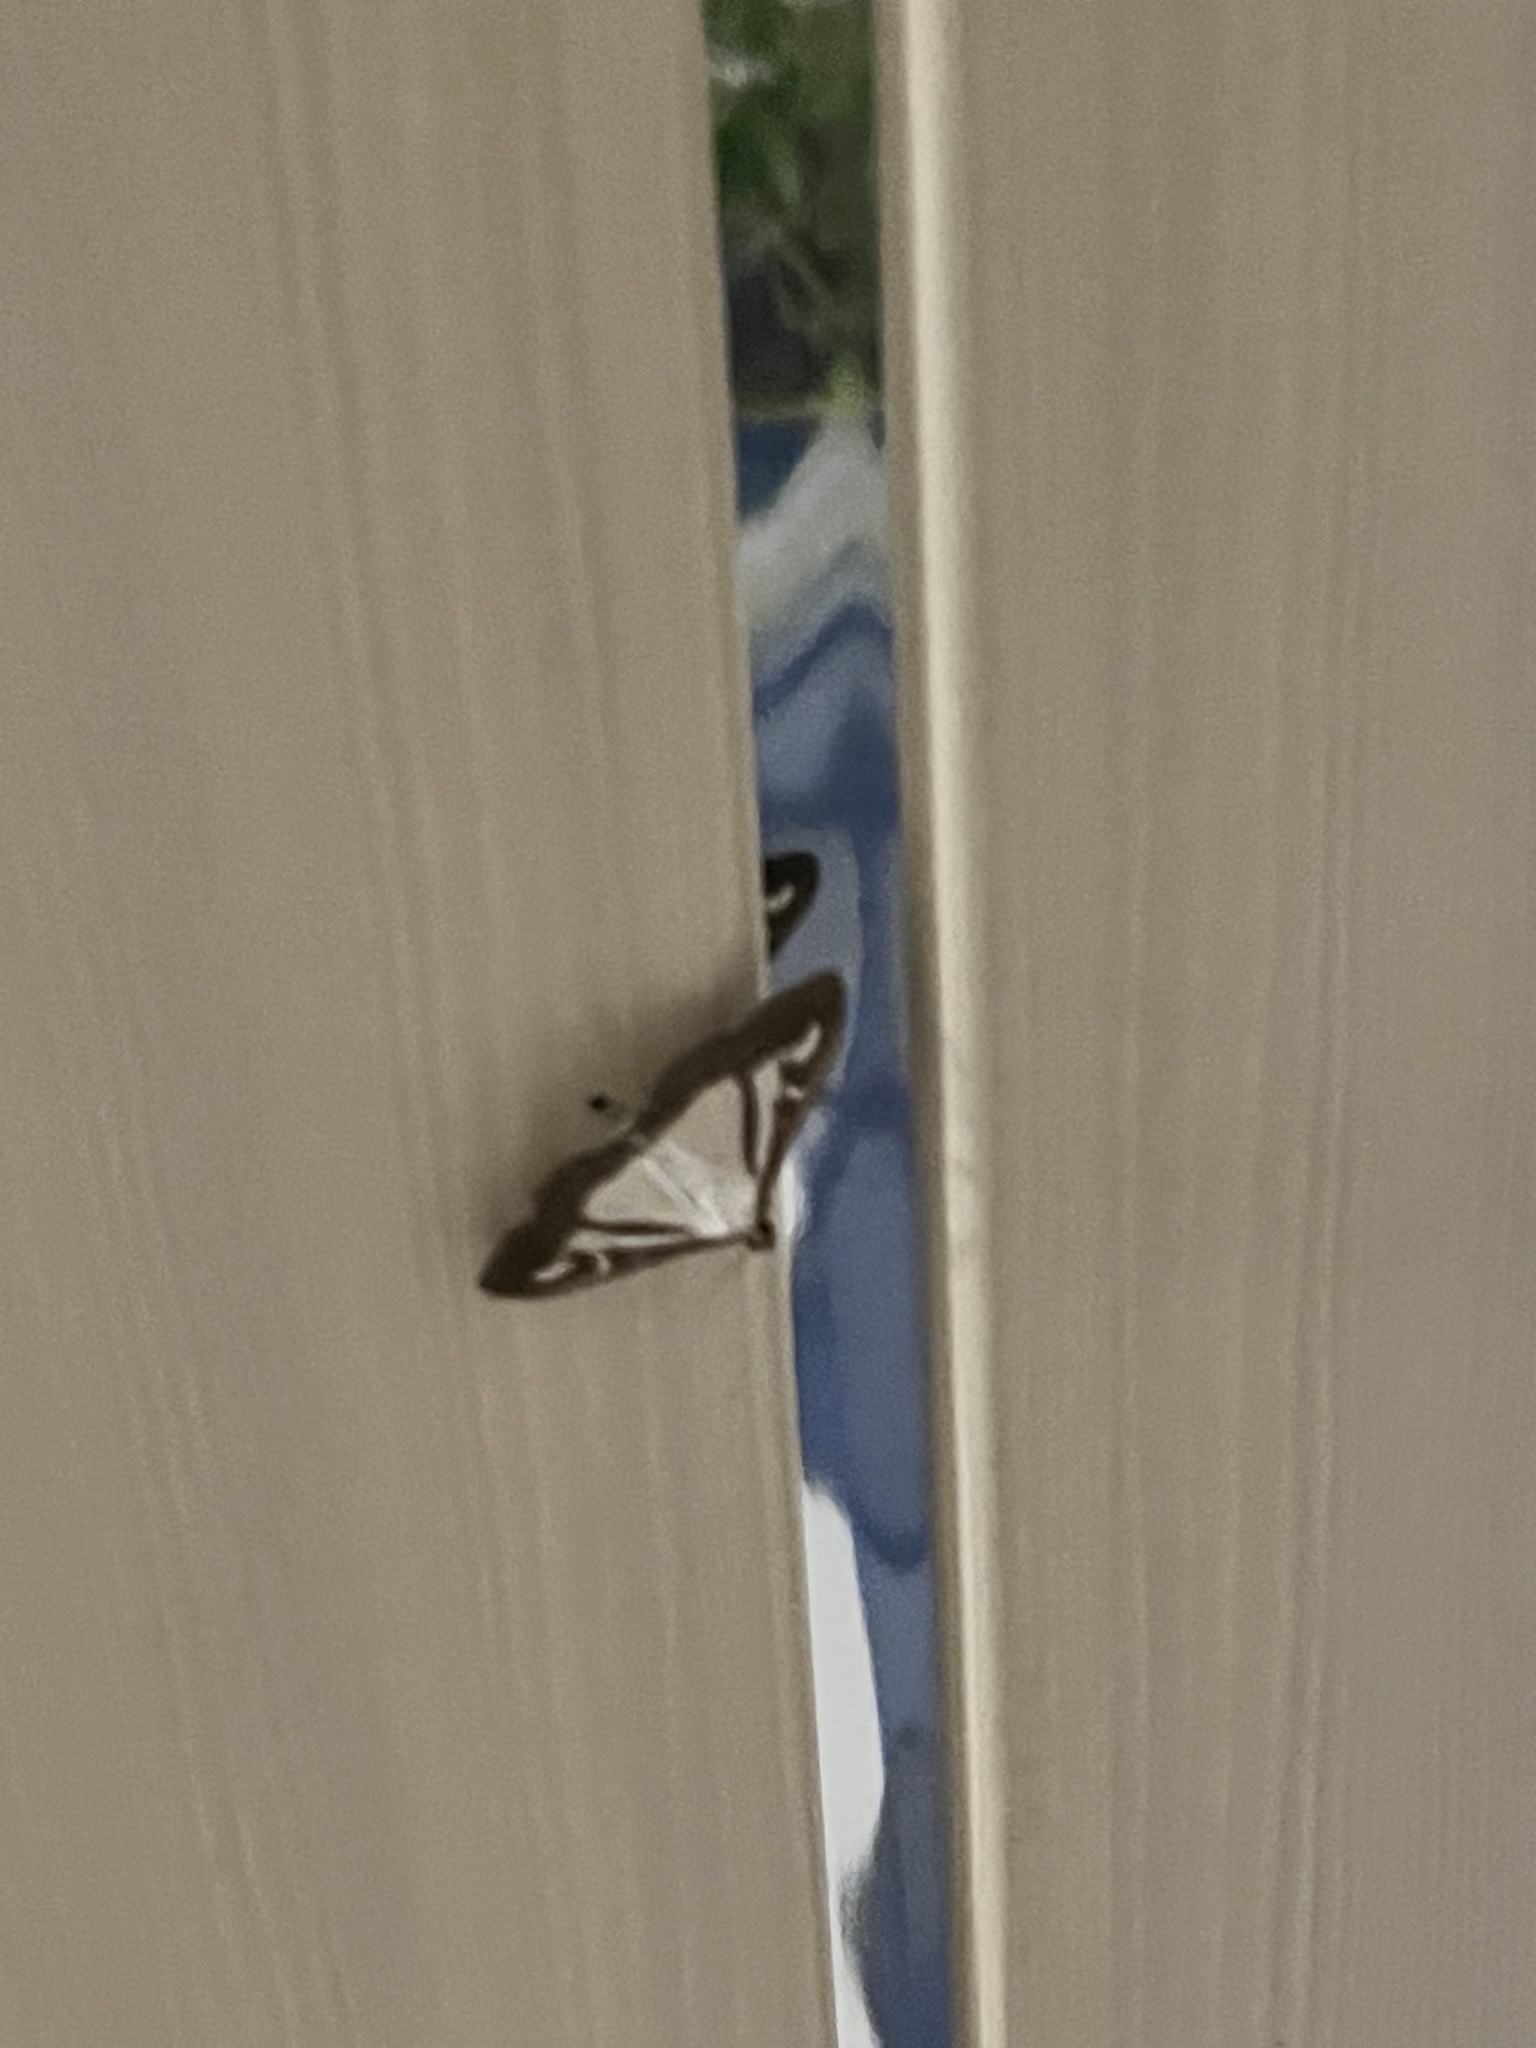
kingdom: Animalia
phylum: Arthropoda
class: Insecta
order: Lepidoptera
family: Crambidae
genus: Cydalima
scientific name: Cydalima perspectalis
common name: Box tree moth
